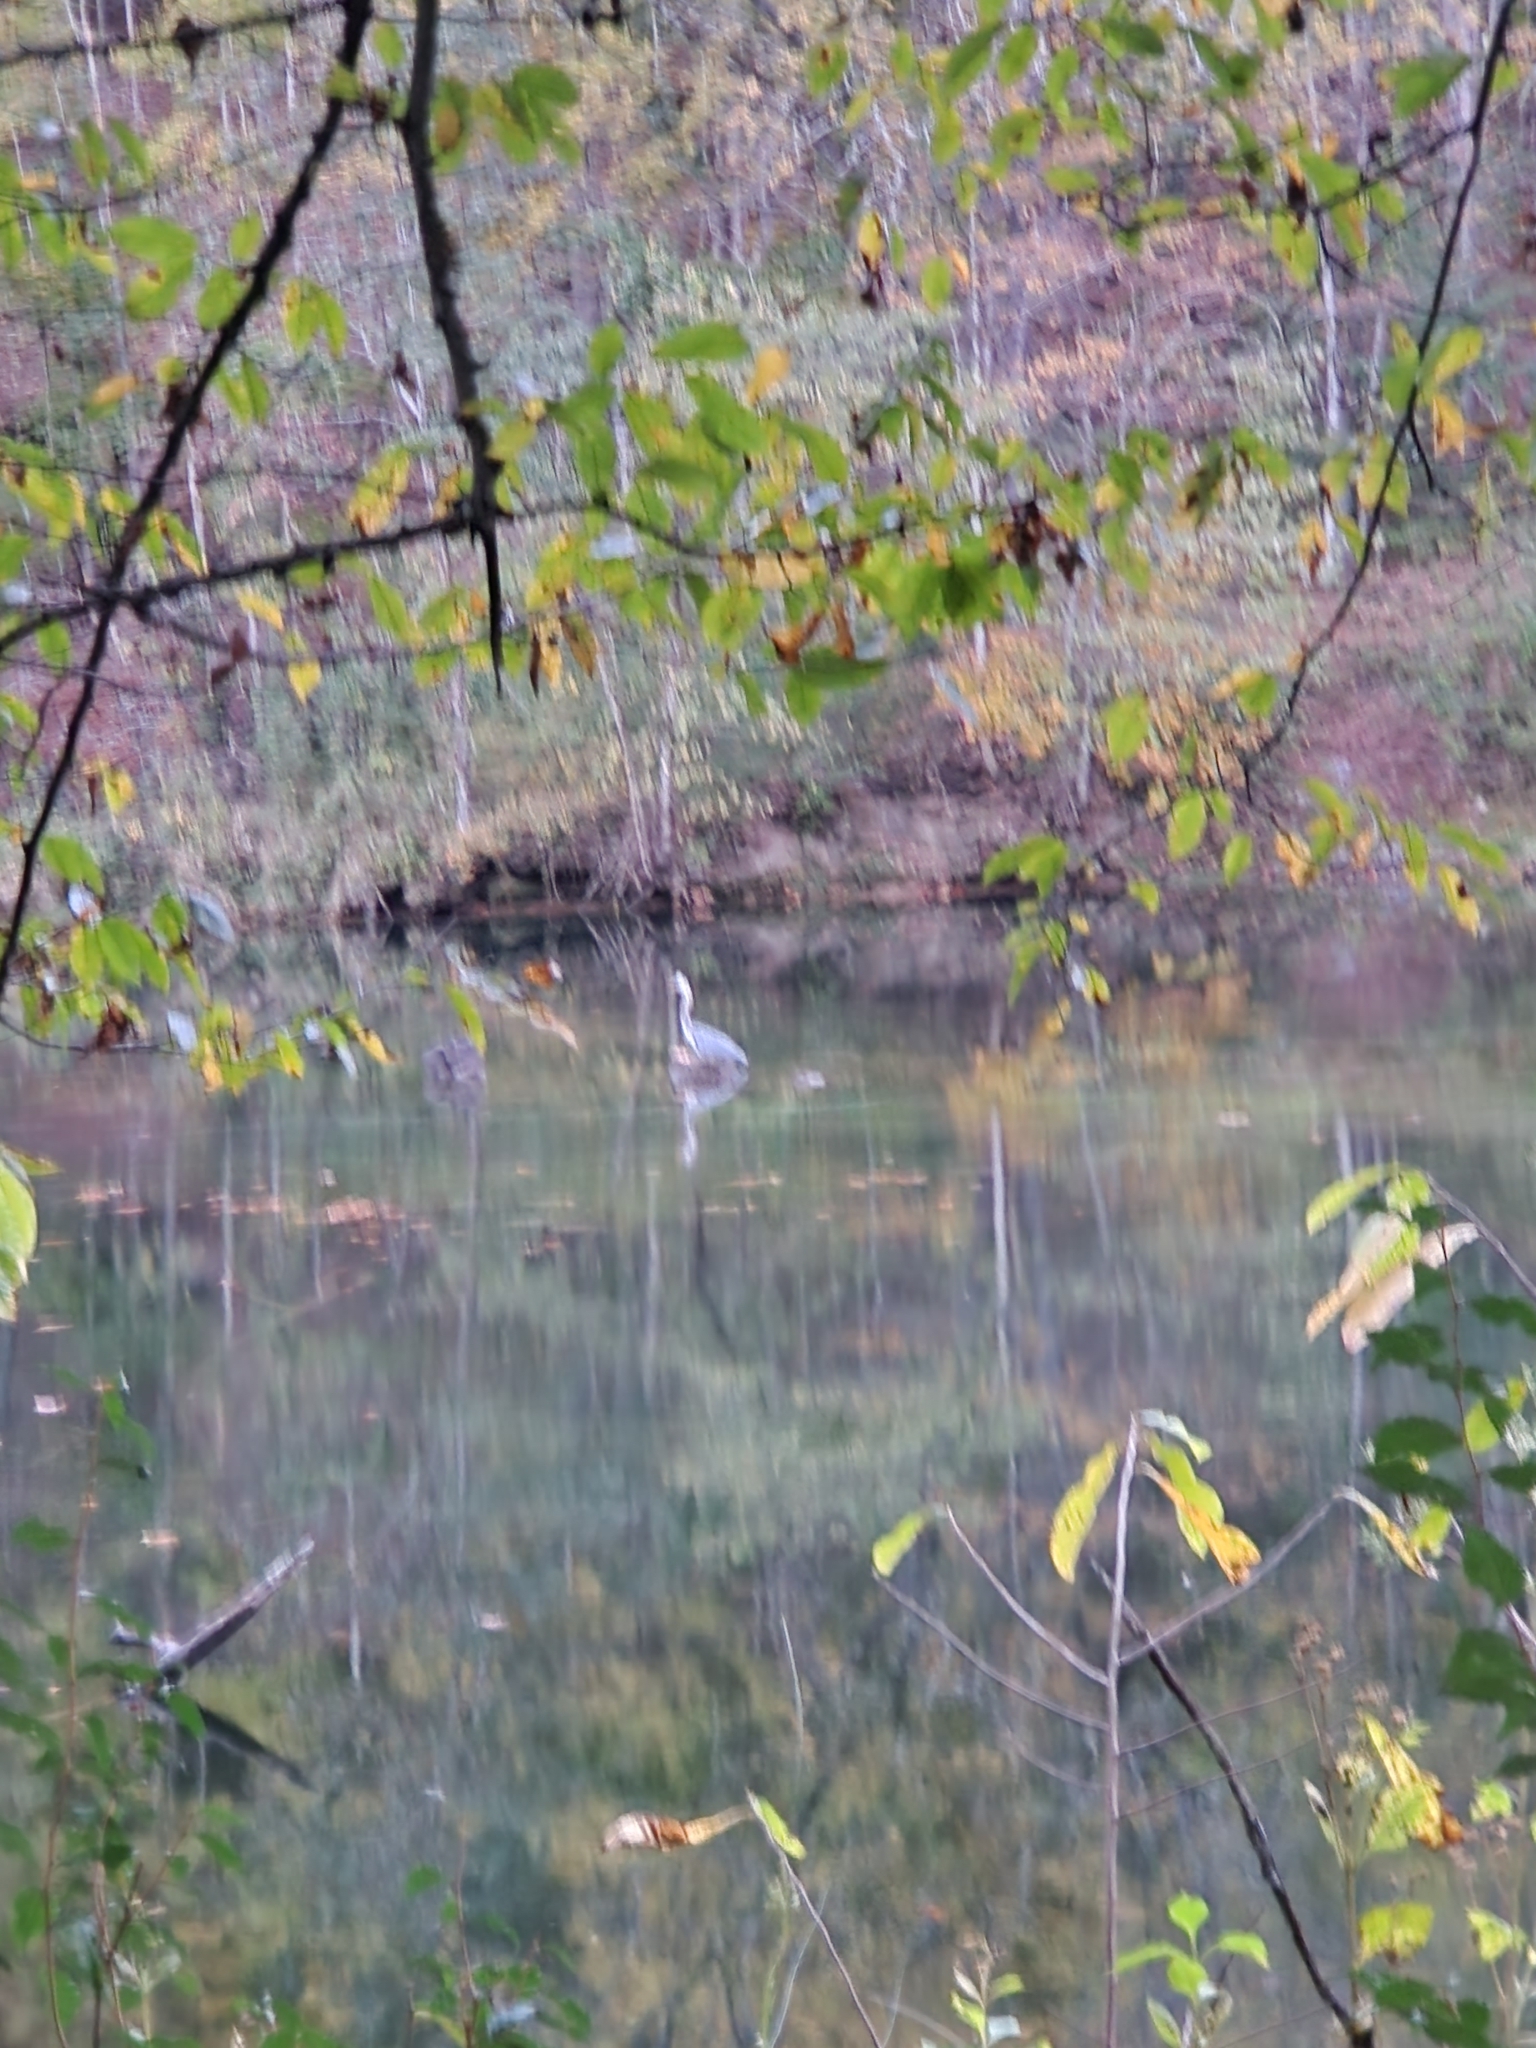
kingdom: Animalia
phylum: Chordata
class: Aves
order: Pelecaniformes
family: Ardeidae
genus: Ardea
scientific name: Ardea herodias
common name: Great blue heron
